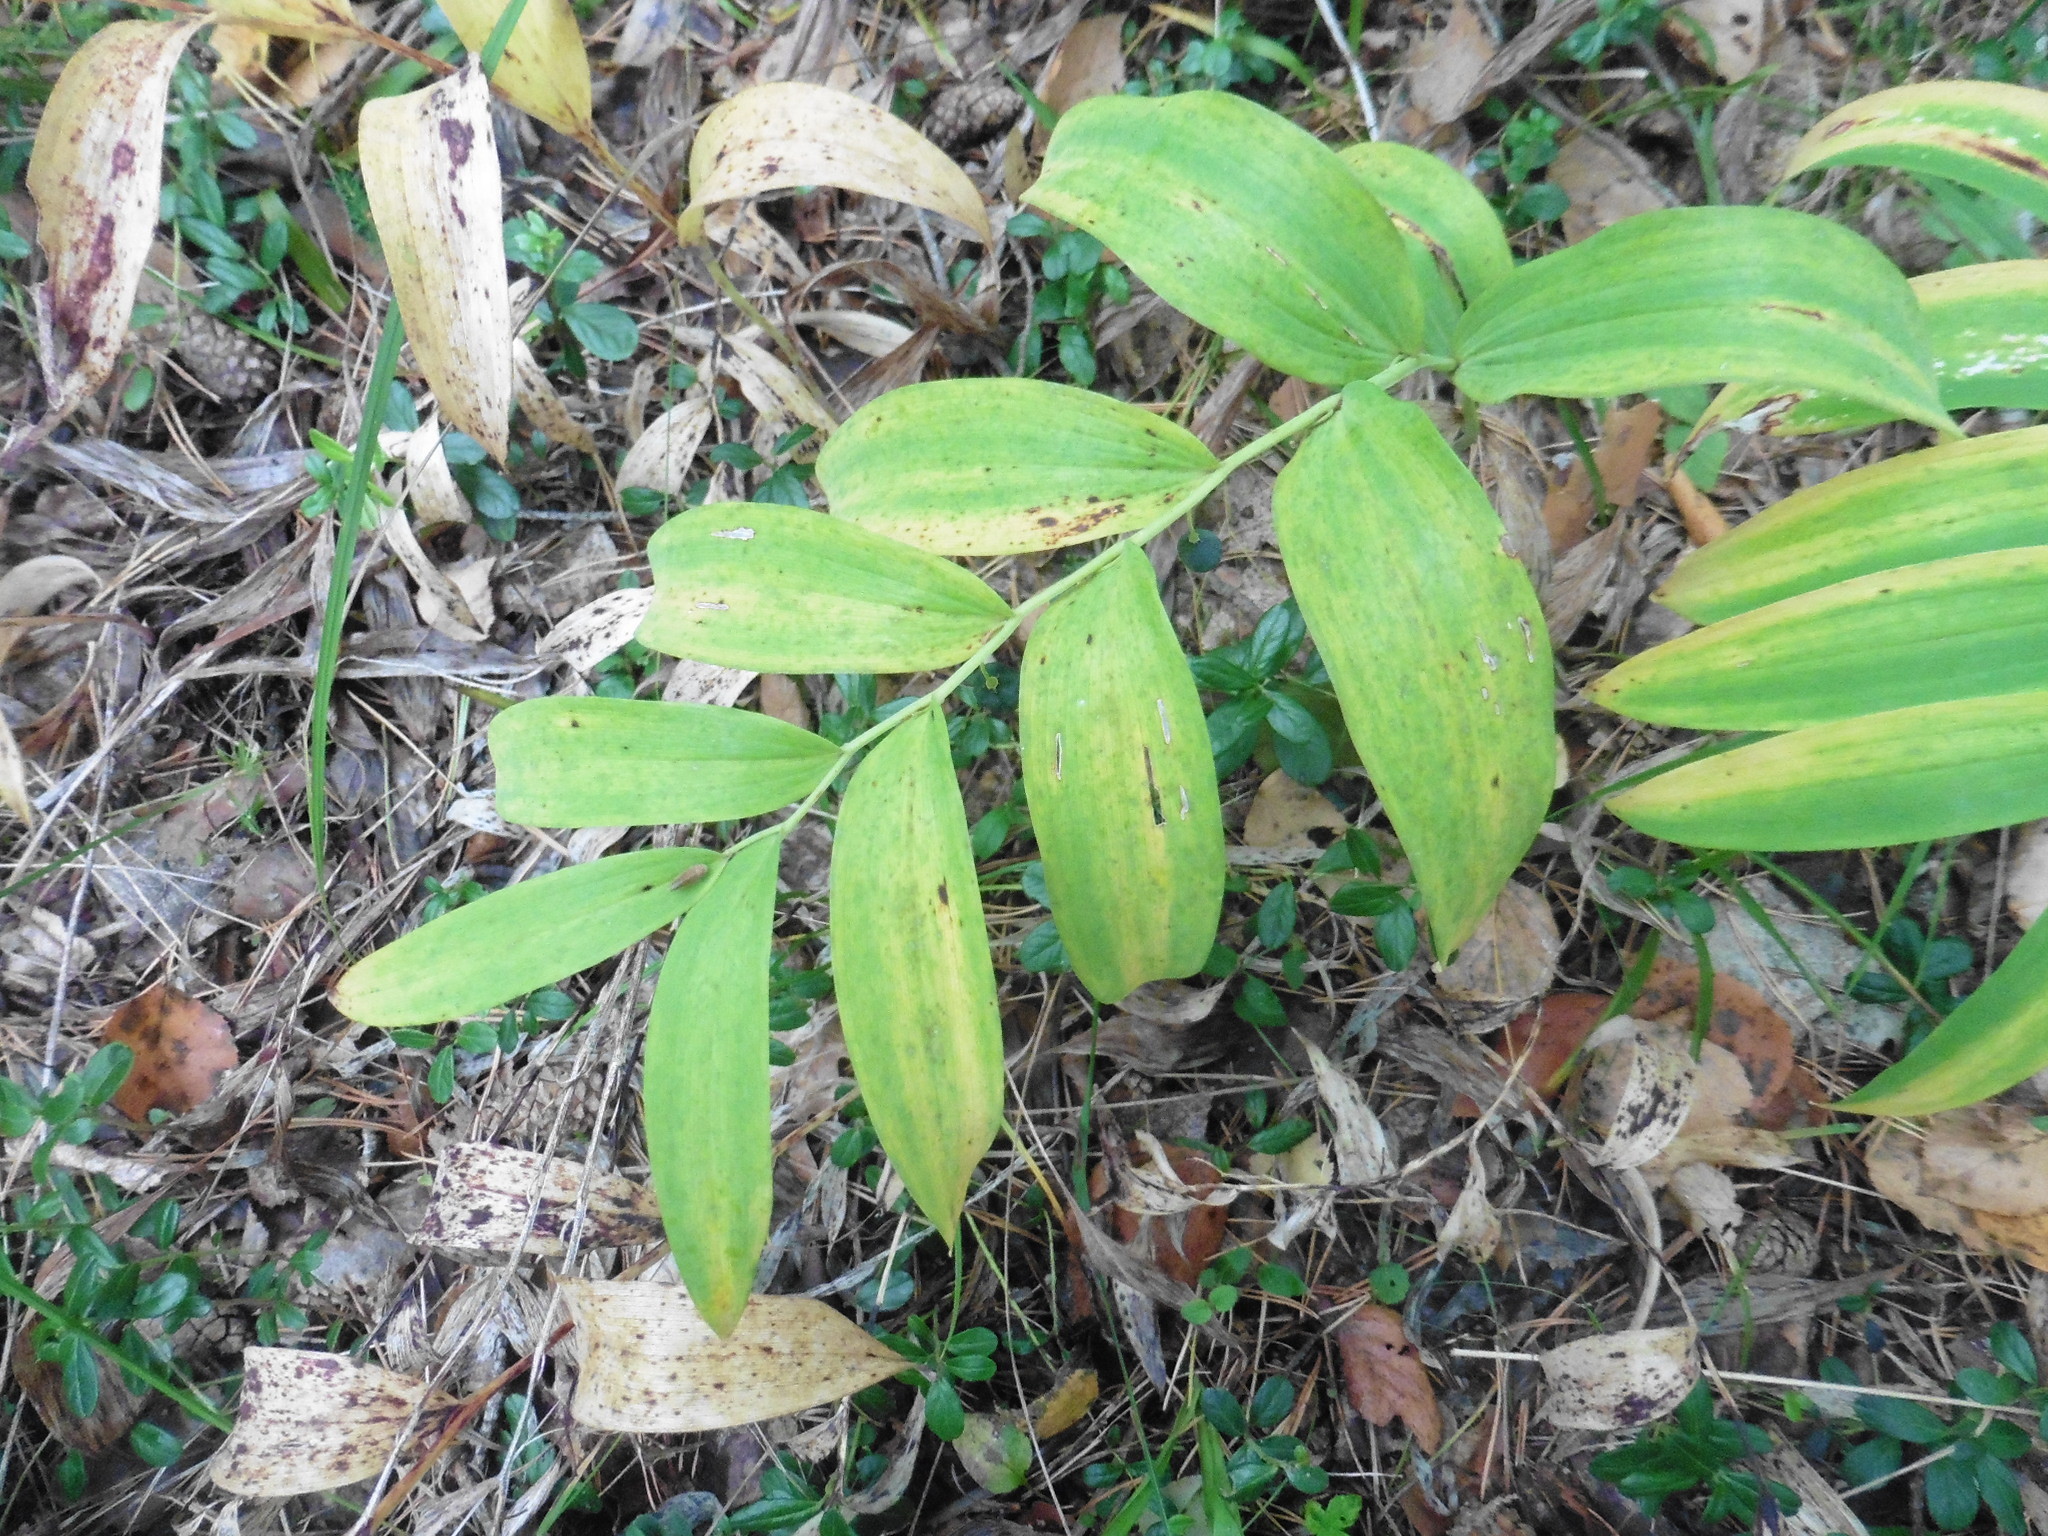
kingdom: Plantae
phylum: Tracheophyta
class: Liliopsida
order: Asparagales
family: Asparagaceae
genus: Polygonatum
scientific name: Polygonatum odoratum
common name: Angular solomon's-seal
